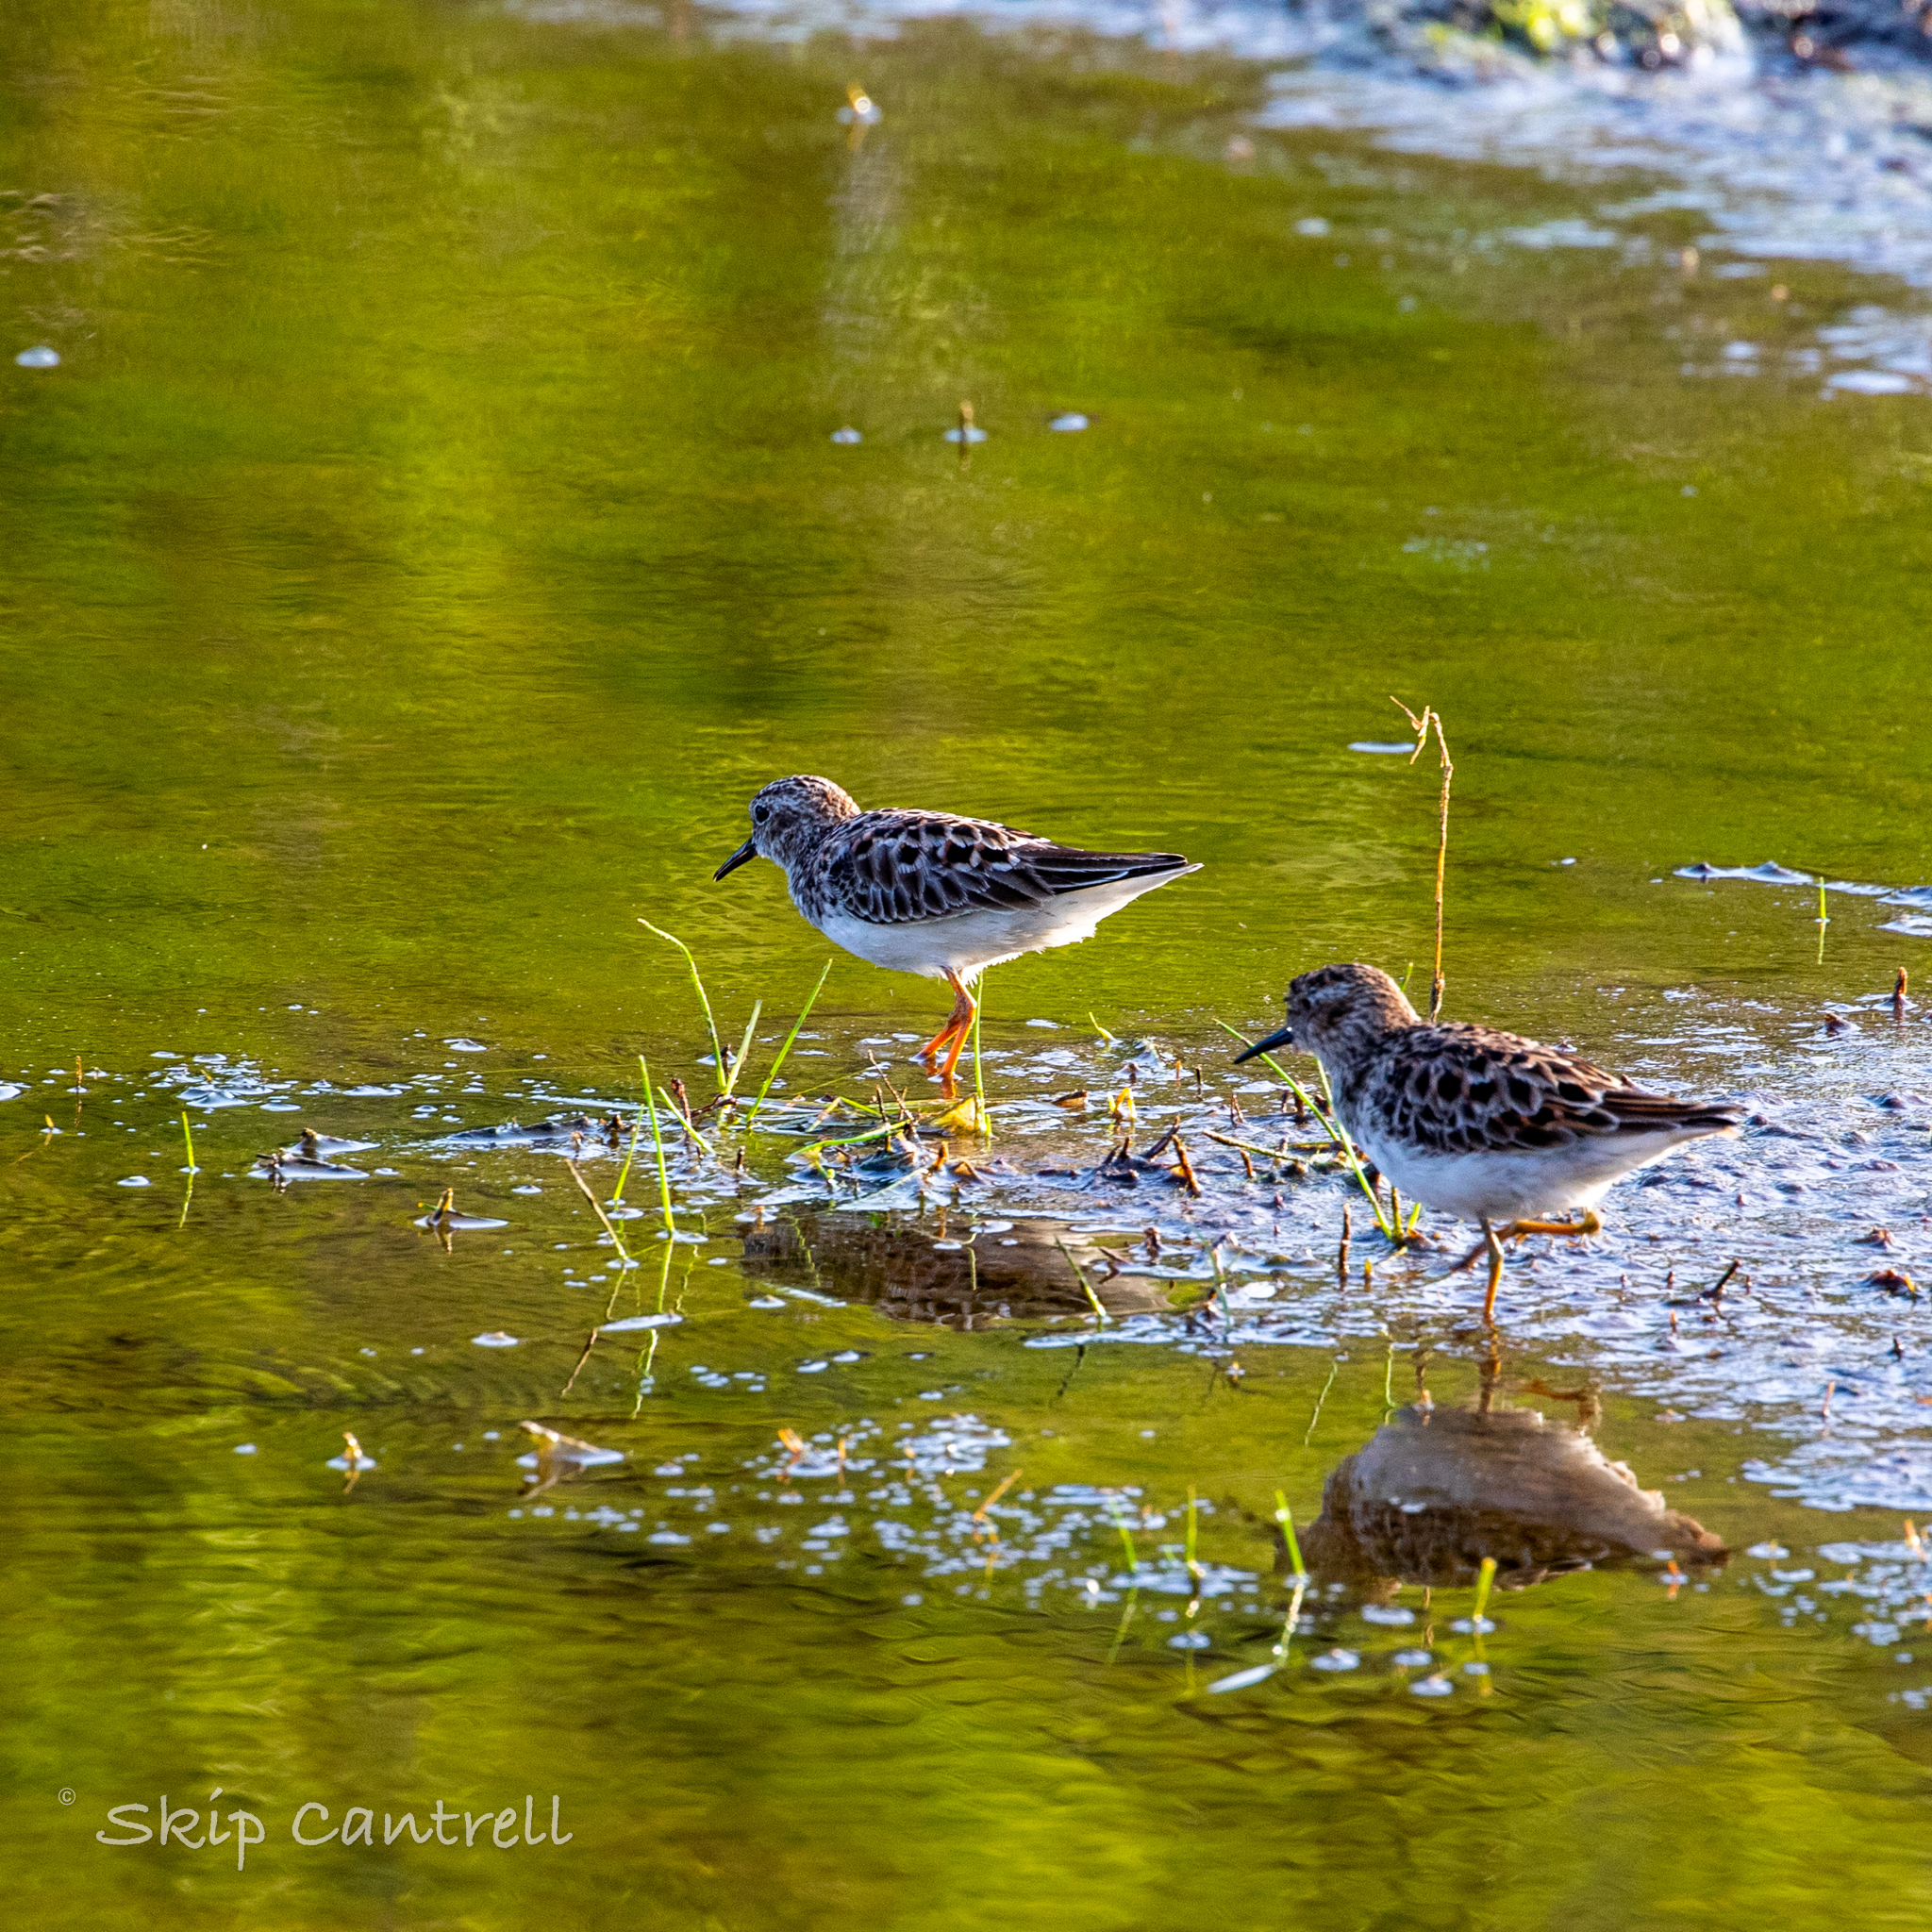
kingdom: Animalia
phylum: Chordata
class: Aves
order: Charadriiformes
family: Scolopacidae
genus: Calidris
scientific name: Calidris minutilla
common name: Least sandpiper
